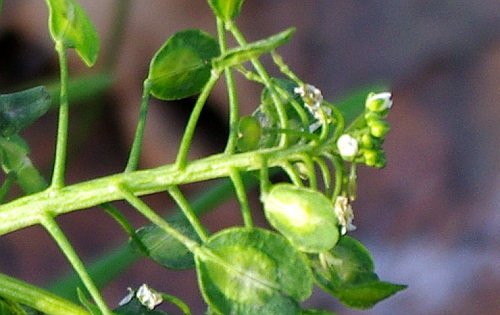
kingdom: Plantae
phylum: Tracheophyta
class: Magnoliopsida
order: Brassicales
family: Brassicaceae
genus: Thlaspi
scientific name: Thlaspi arvense
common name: Field pennycress
